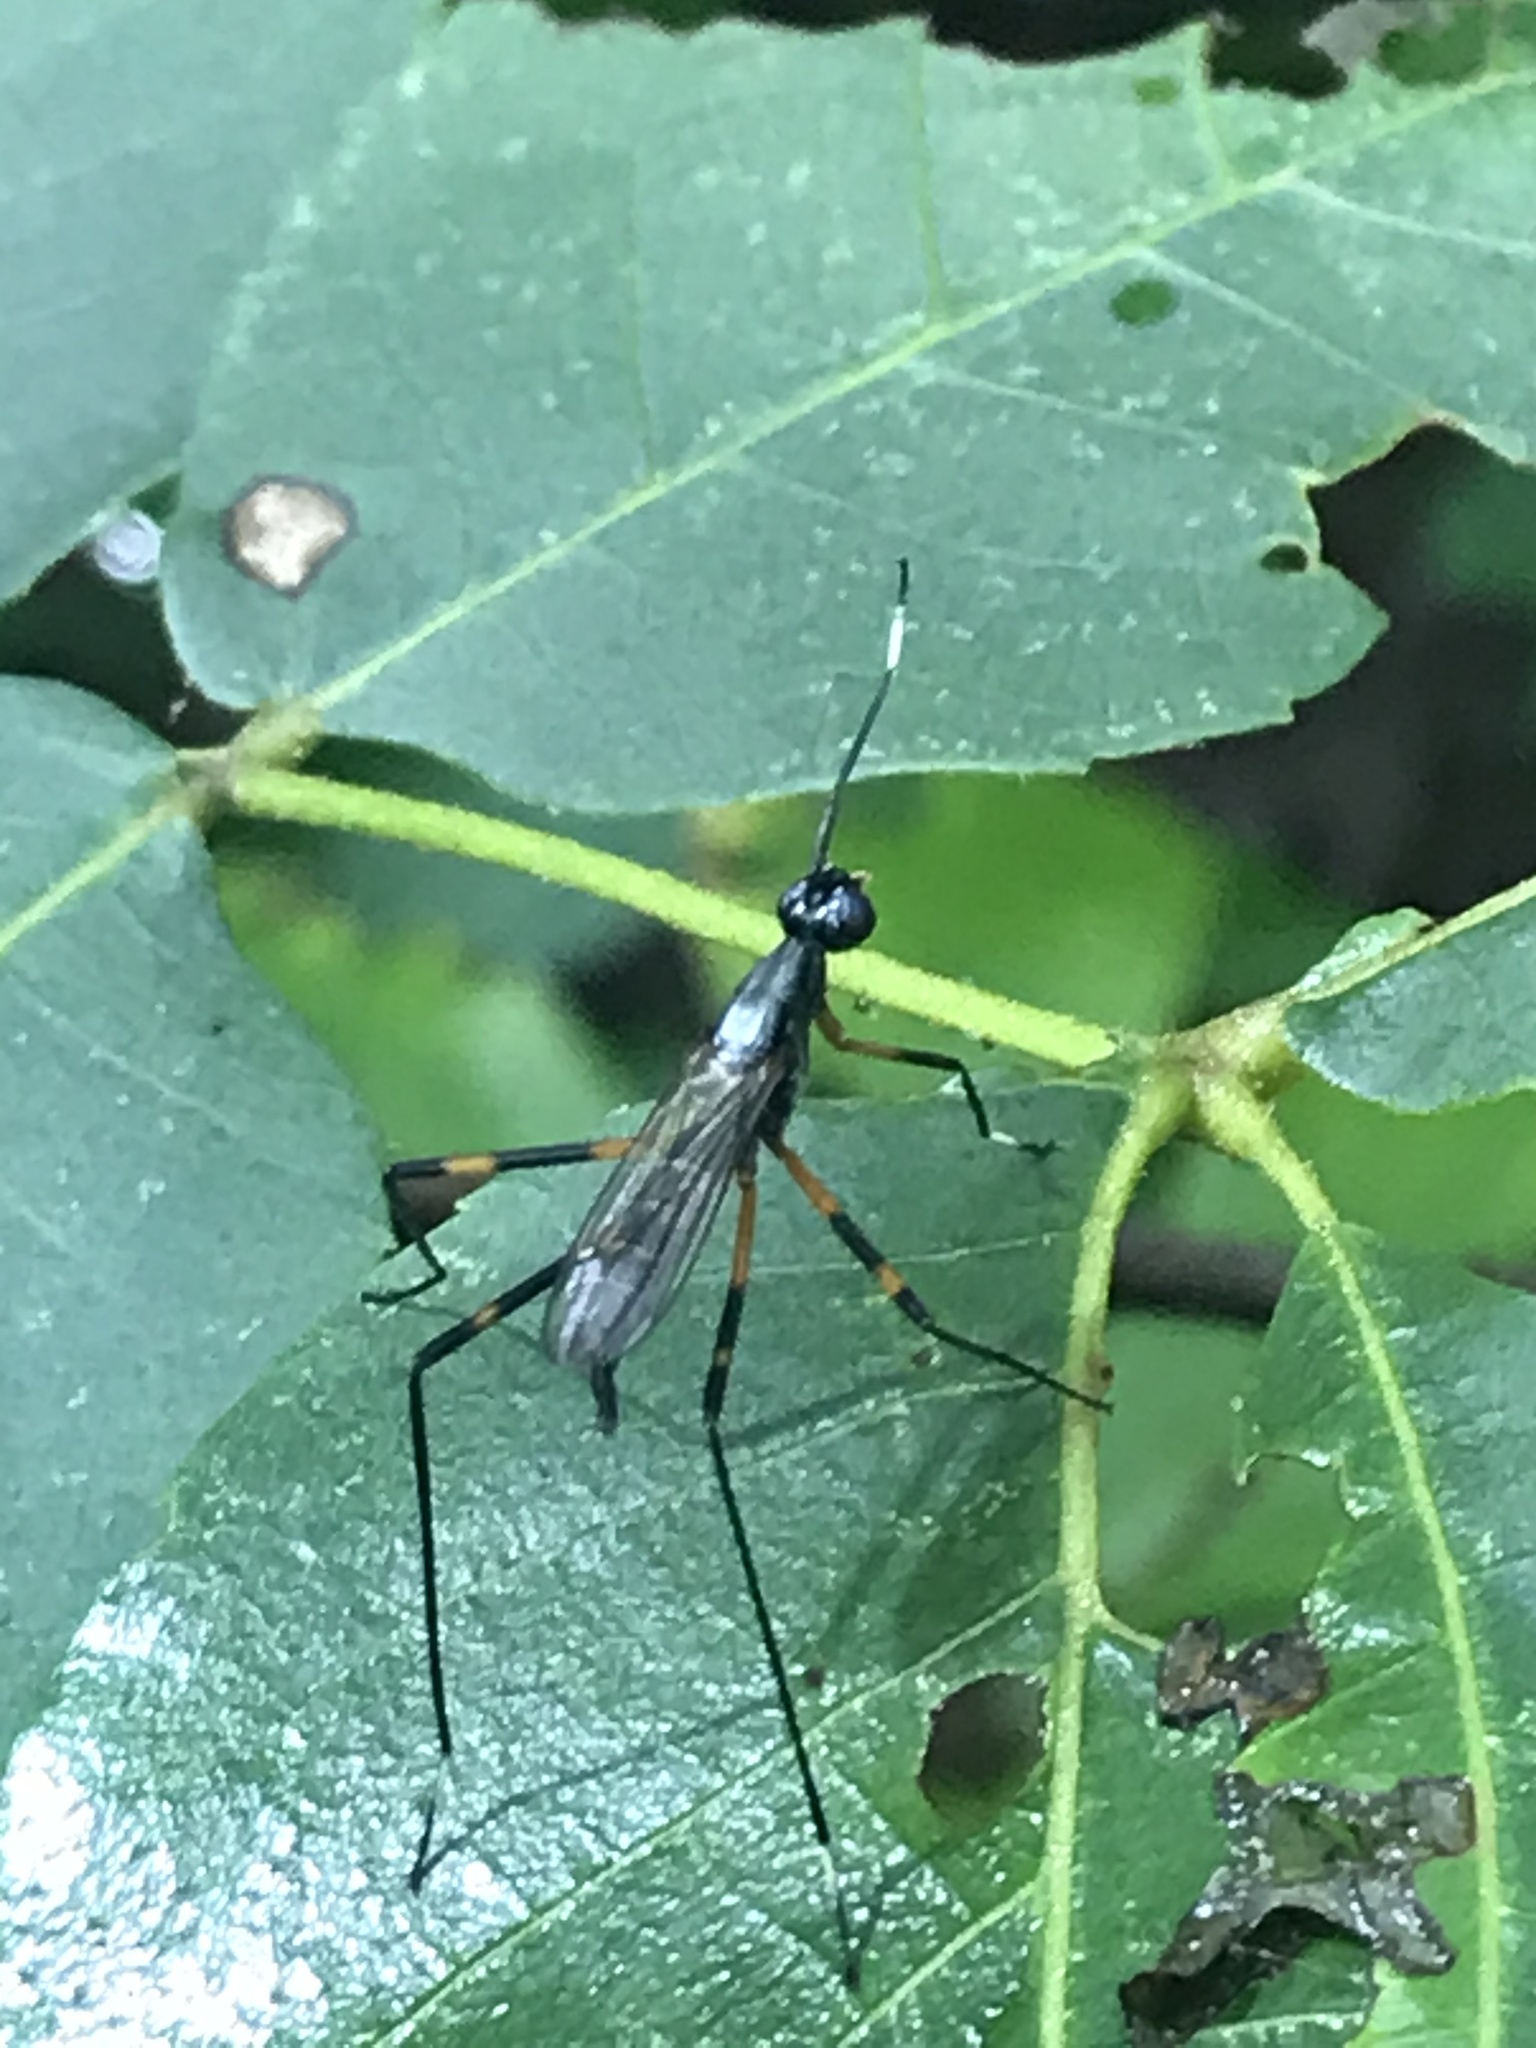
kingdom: Animalia
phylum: Arthropoda
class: Insecta
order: Diptera
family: Micropezidae
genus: Calobatina
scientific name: Calobatina geometra
